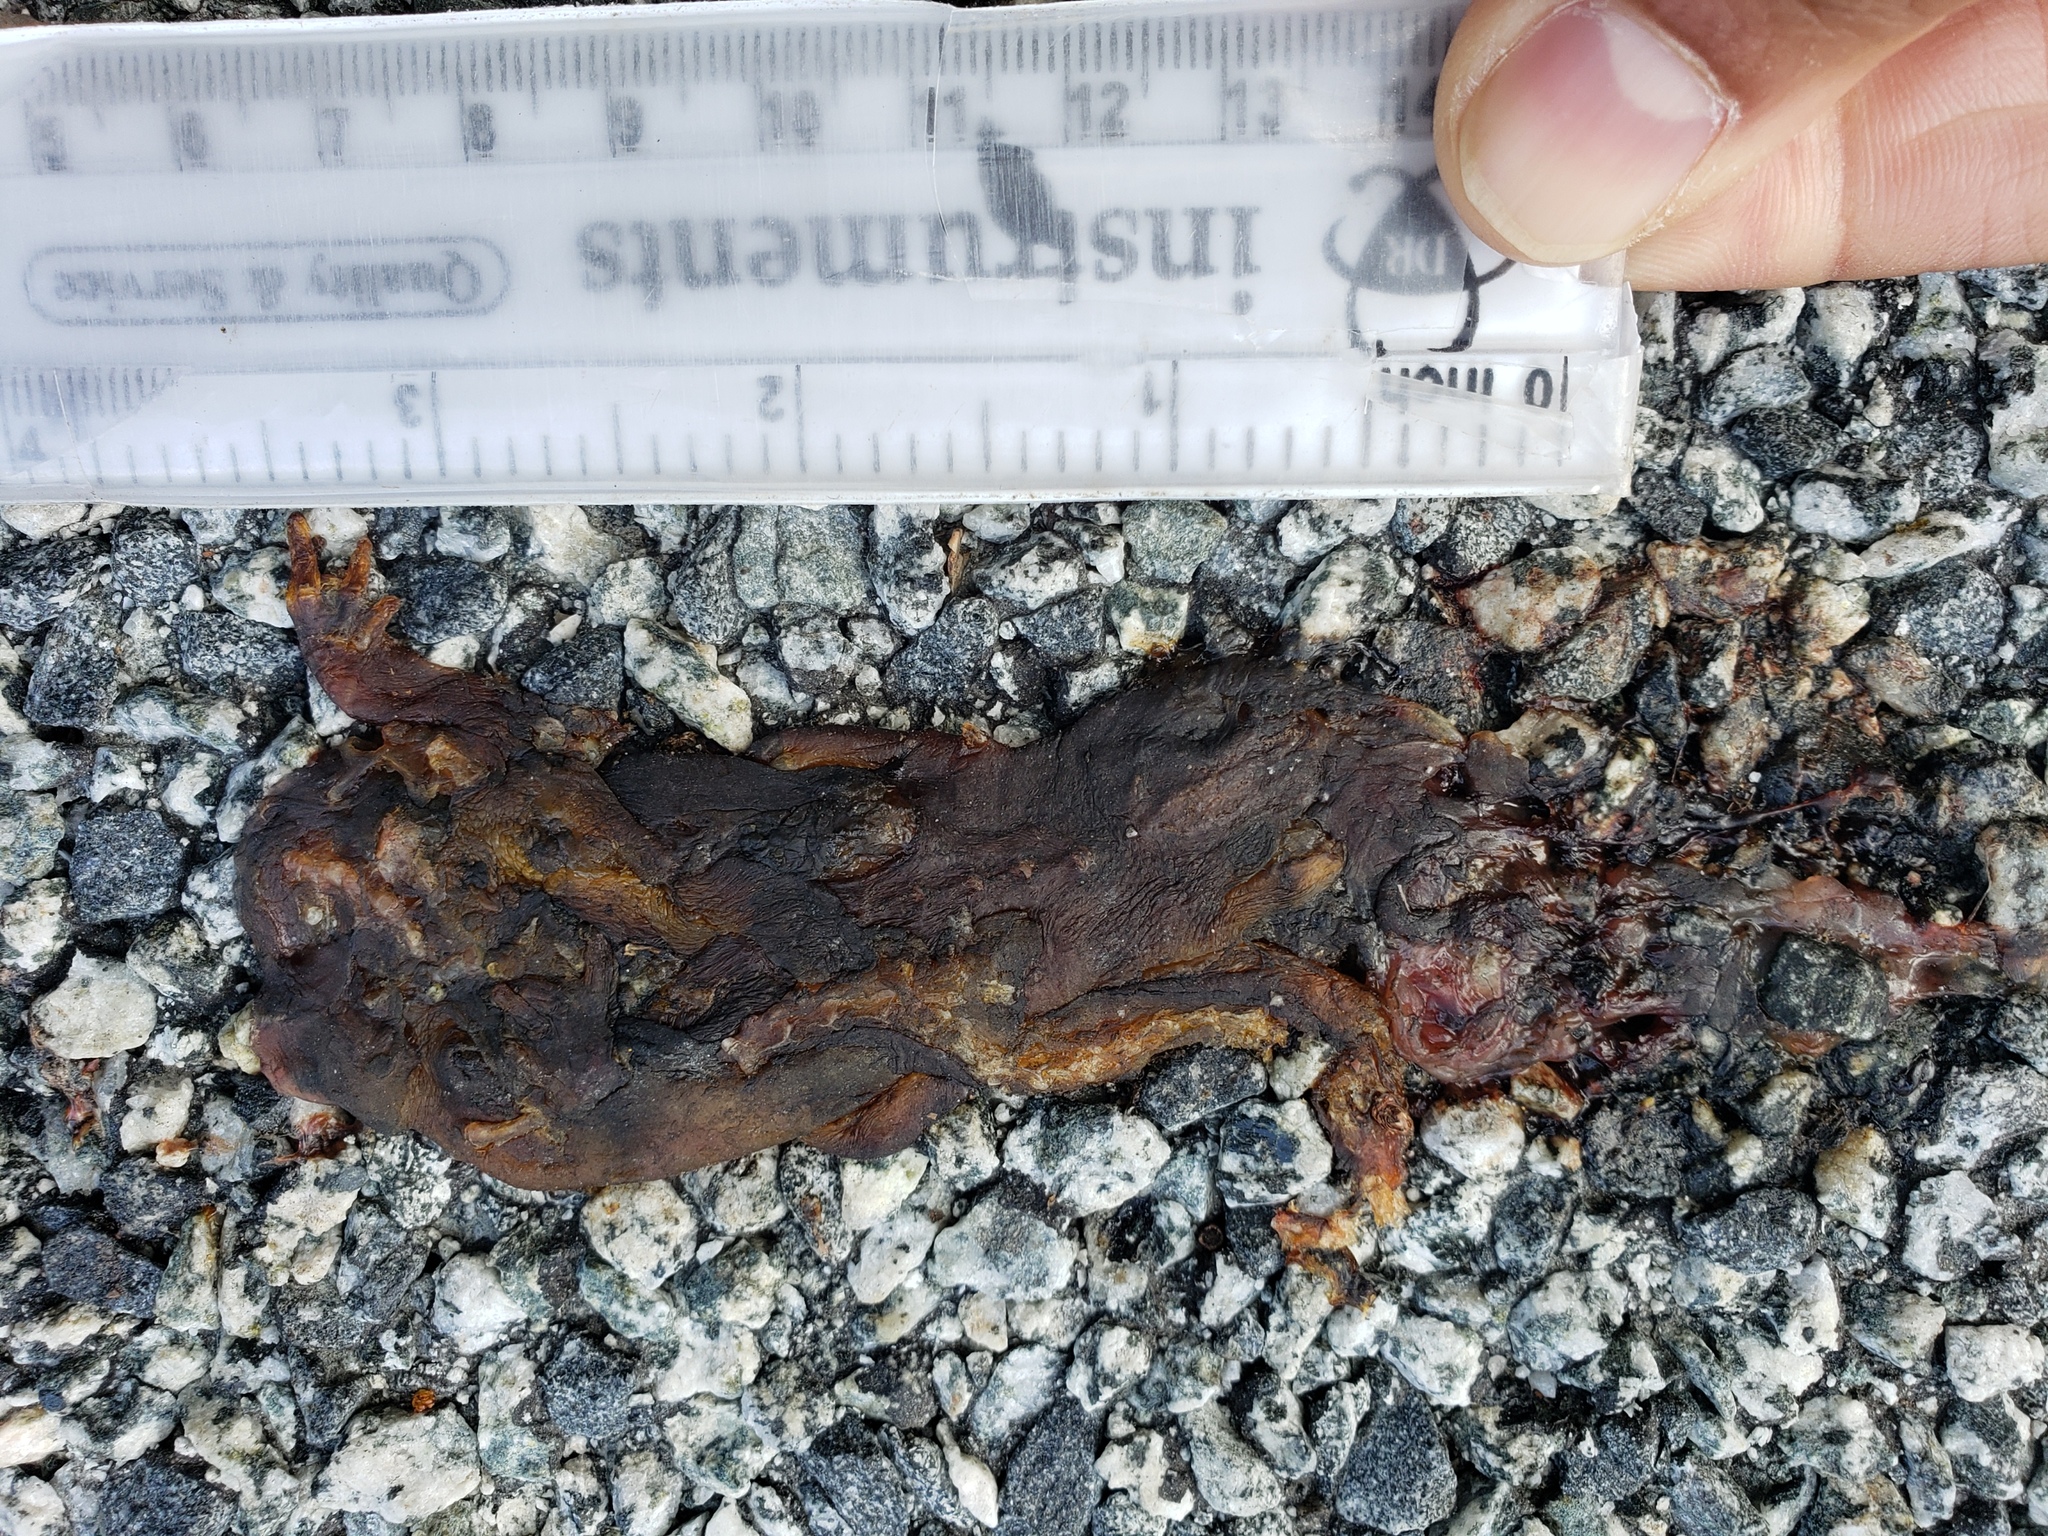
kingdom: Animalia
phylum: Chordata
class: Amphibia
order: Caudata
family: Salamandridae
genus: Taricha
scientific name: Taricha
